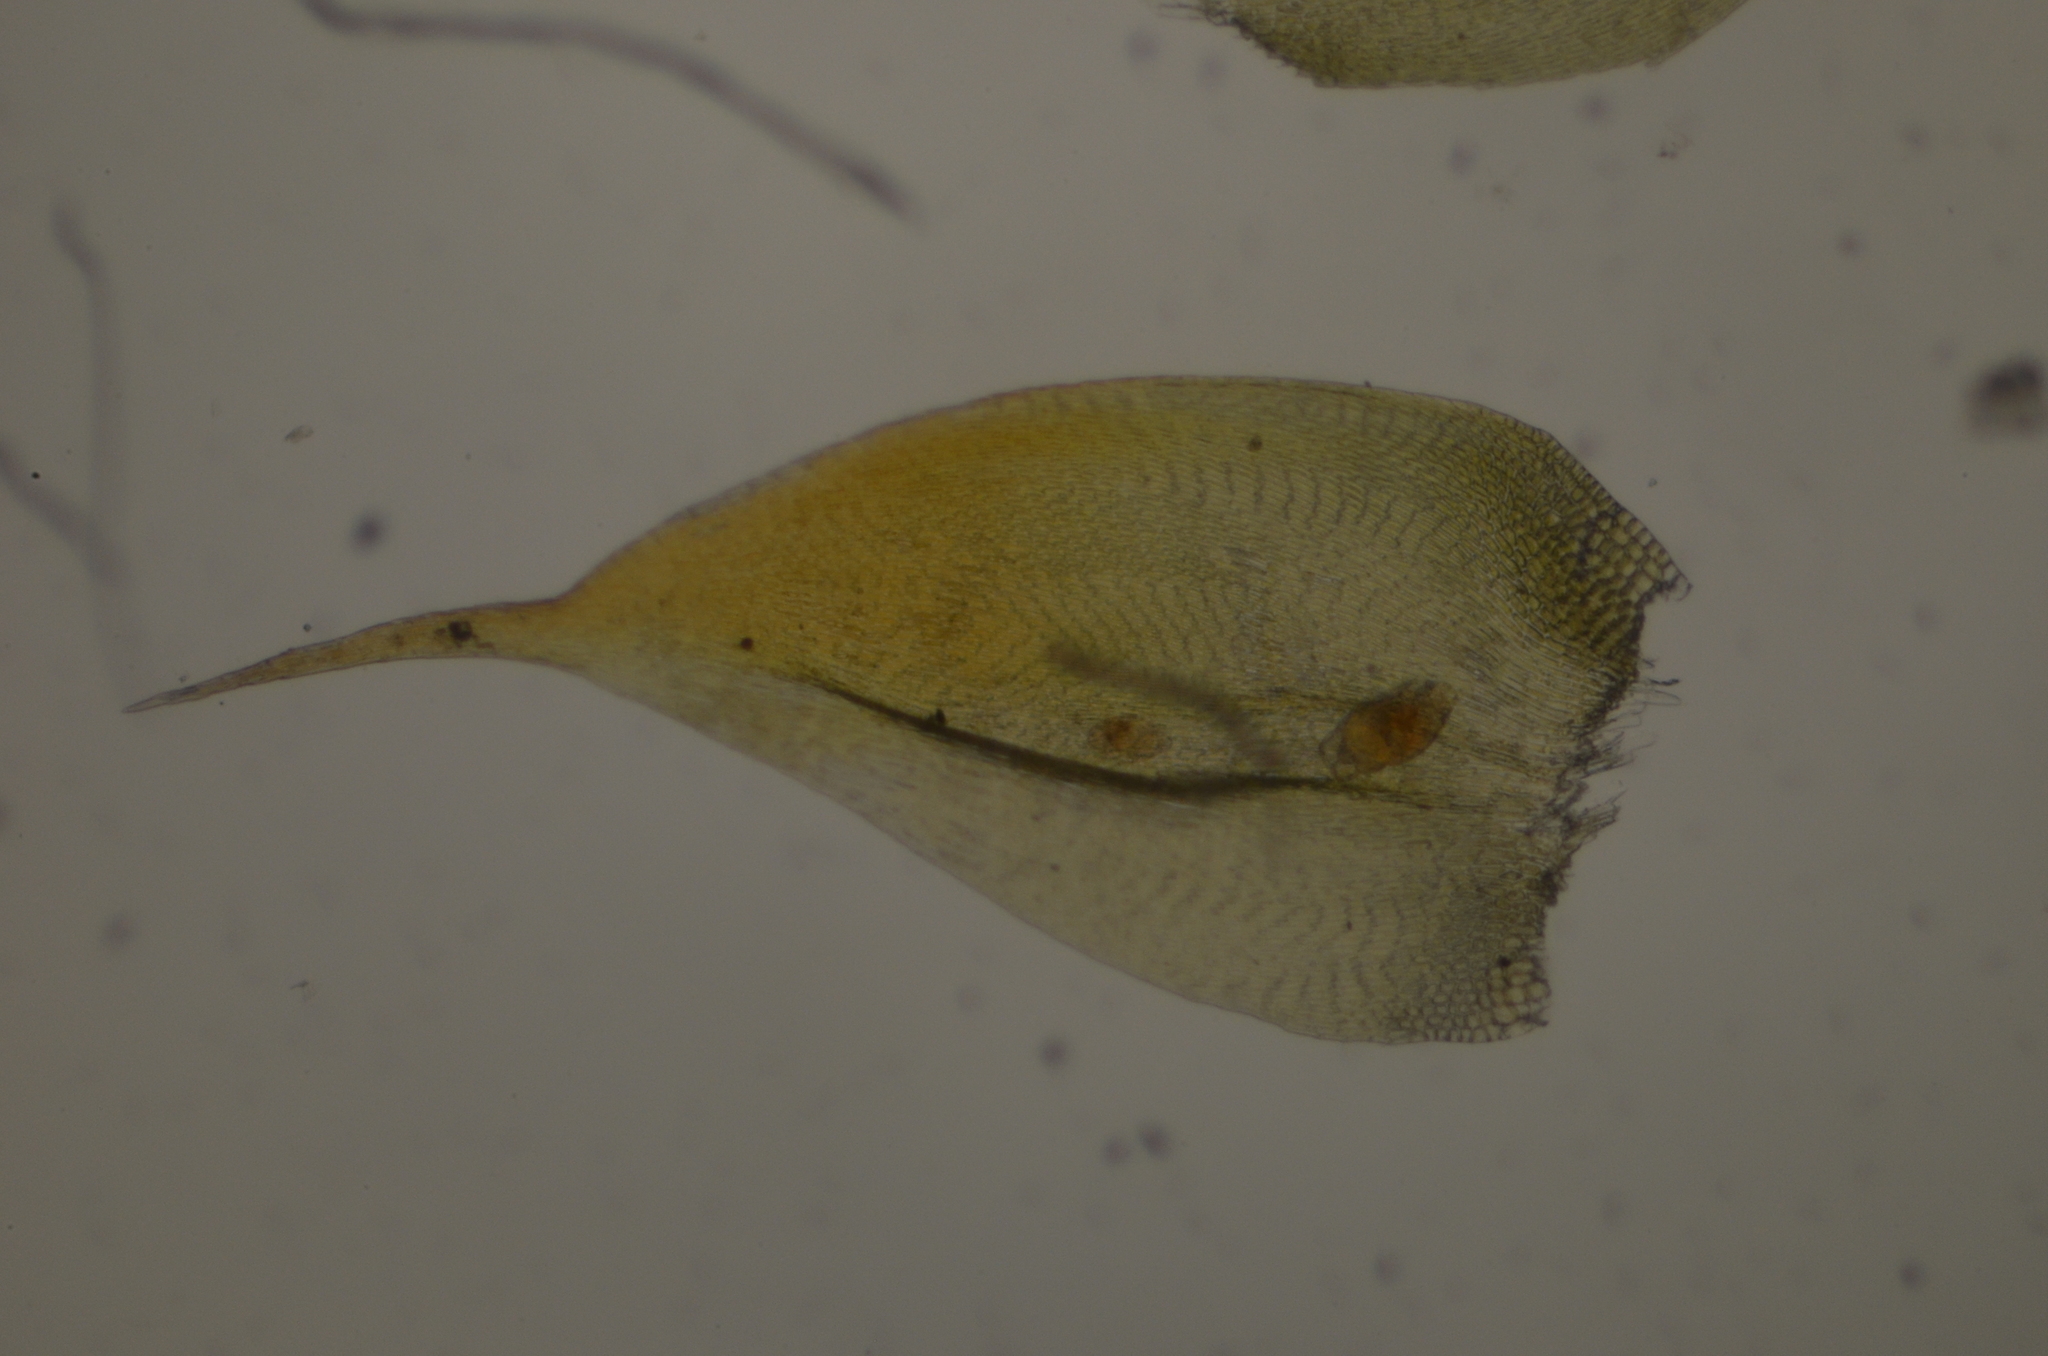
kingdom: Plantae
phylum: Bryophyta
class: Bryopsida
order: Hypnales
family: Pylaisiaceae
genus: Pylaisia
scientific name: Pylaisia polyantha
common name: Many-flowered leskea
